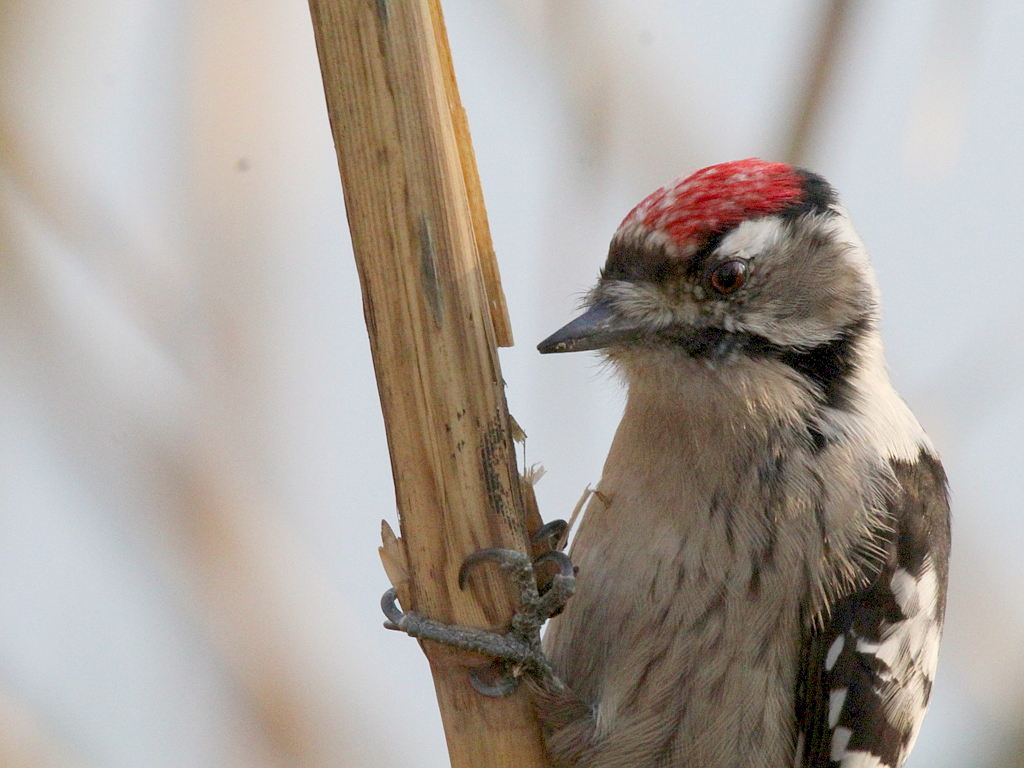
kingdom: Animalia
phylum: Chordata
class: Aves
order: Piciformes
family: Picidae
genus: Dryobates
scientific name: Dryobates minor
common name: Lesser spotted woodpecker
